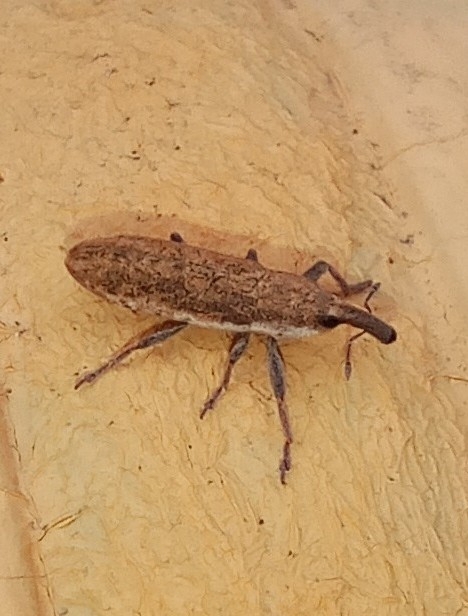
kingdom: Animalia
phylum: Arthropoda
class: Insecta
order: Coleoptera
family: Curculionidae
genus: Lixus
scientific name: Lixus incanescens
